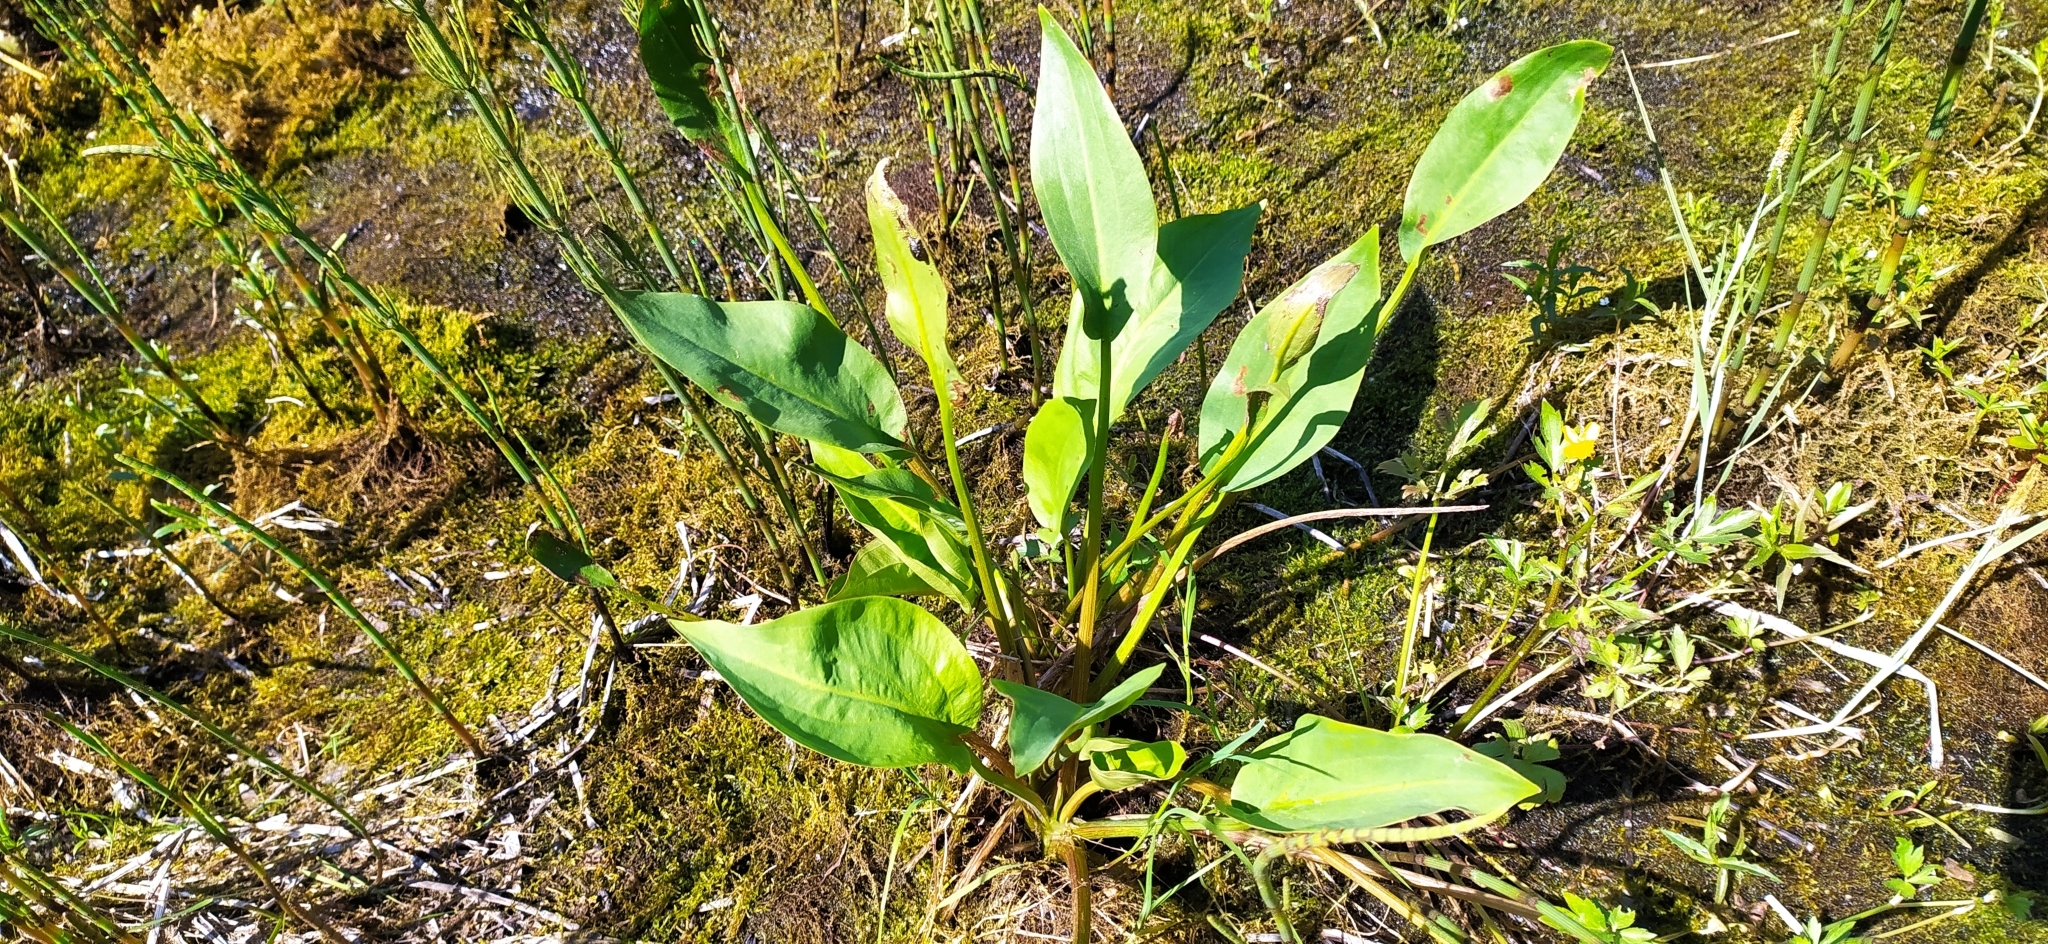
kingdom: Plantae
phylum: Tracheophyta
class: Liliopsida
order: Alismatales
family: Alismataceae
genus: Alisma
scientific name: Alisma plantago-aquatica
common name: Water-plantain
